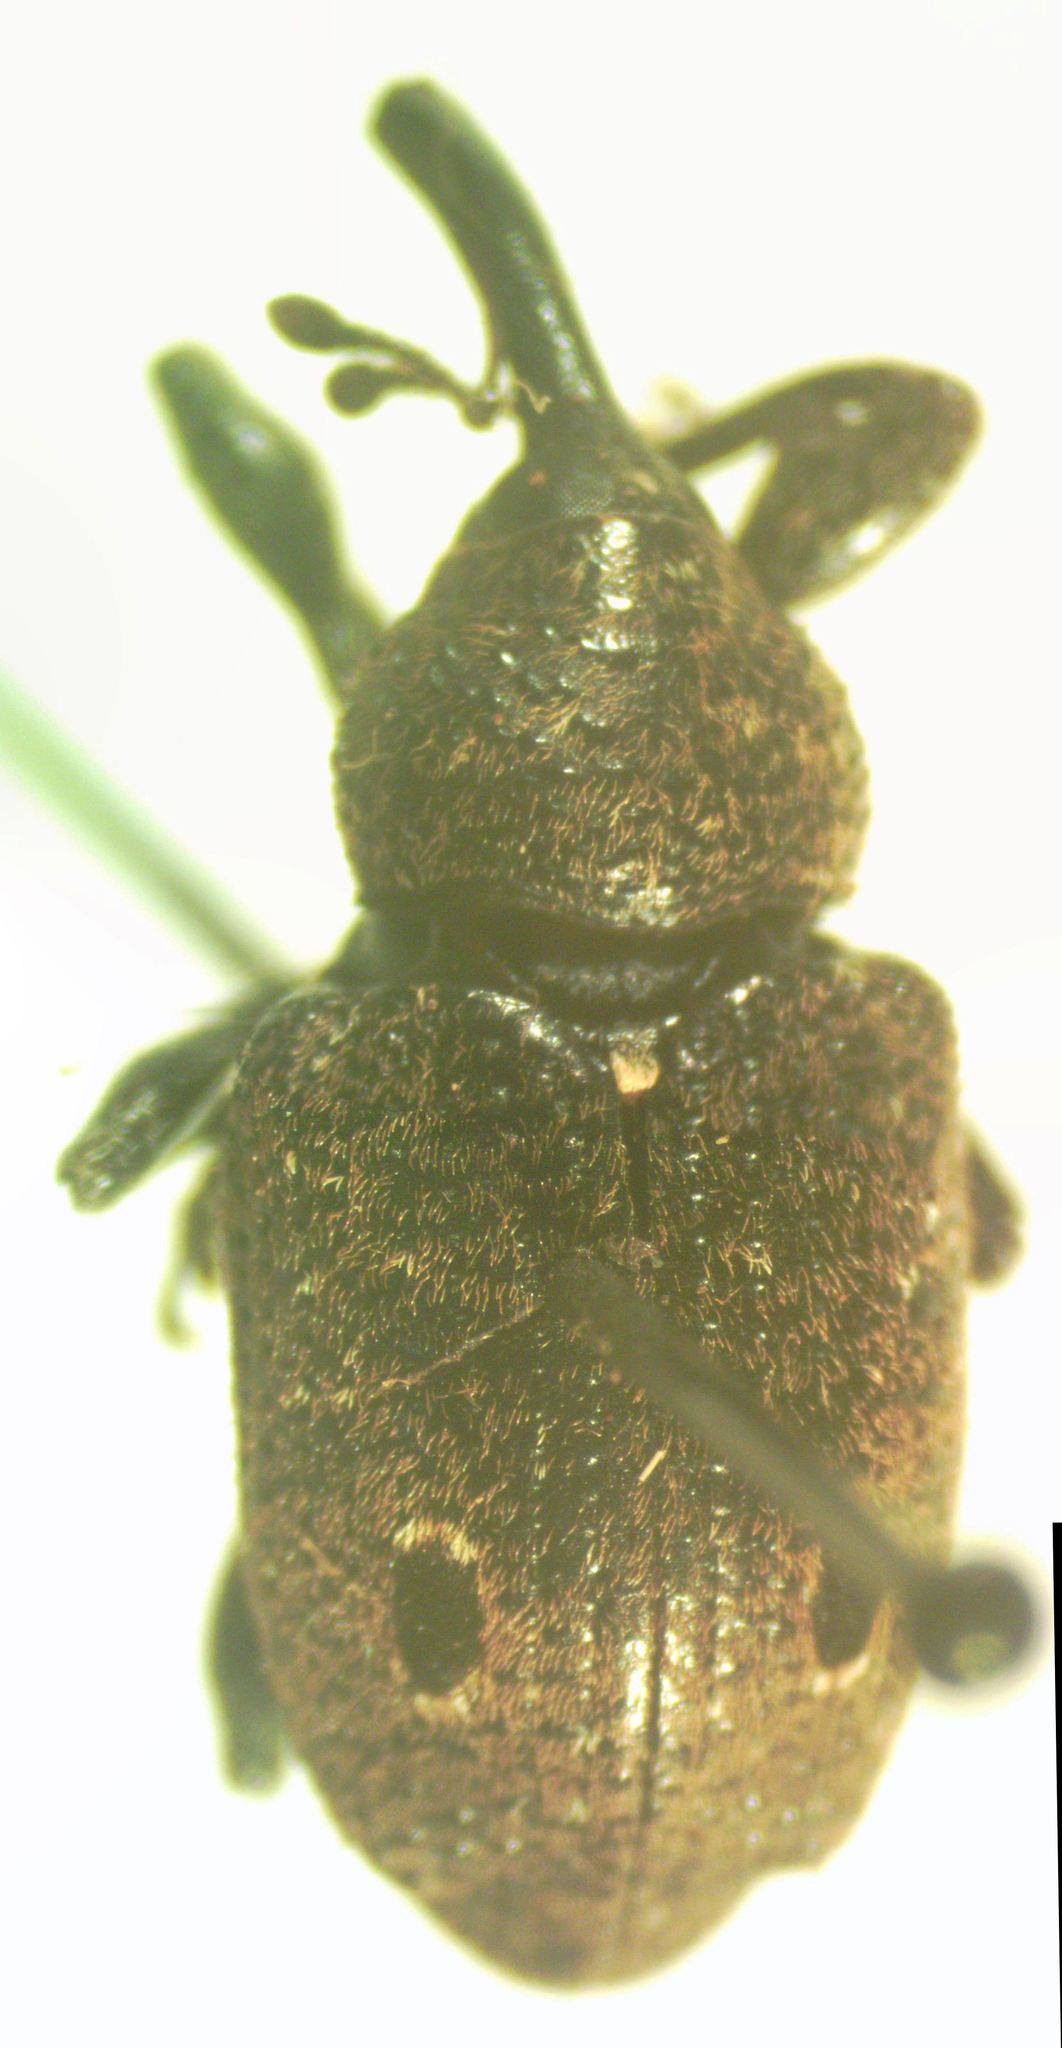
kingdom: Animalia
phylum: Arthropoda
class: Insecta
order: Coleoptera
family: Curculionidae
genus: Heilus
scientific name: Heilus bioculatus
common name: Gumbo limbo weevil
